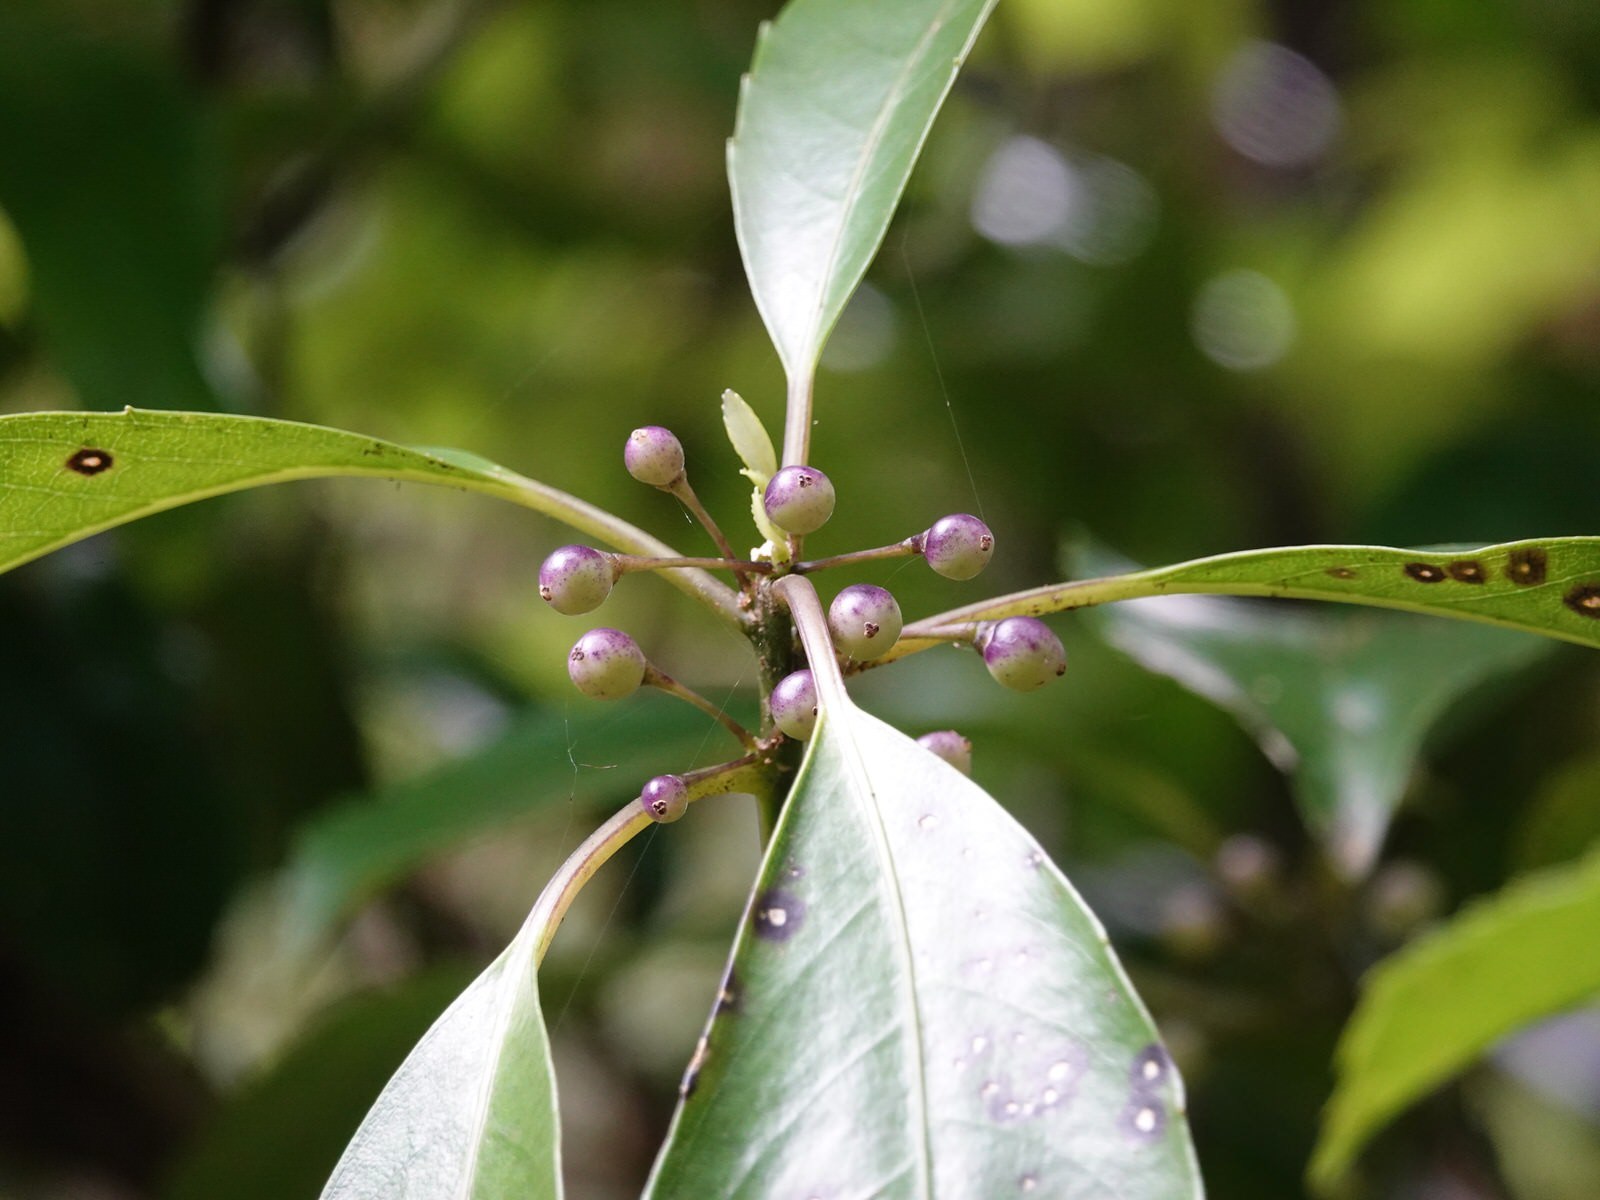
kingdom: Plantae
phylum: Tracheophyta
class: Magnoliopsida
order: Malpighiales
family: Violaceae
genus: Melicytus
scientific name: Melicytus macrophyllus
